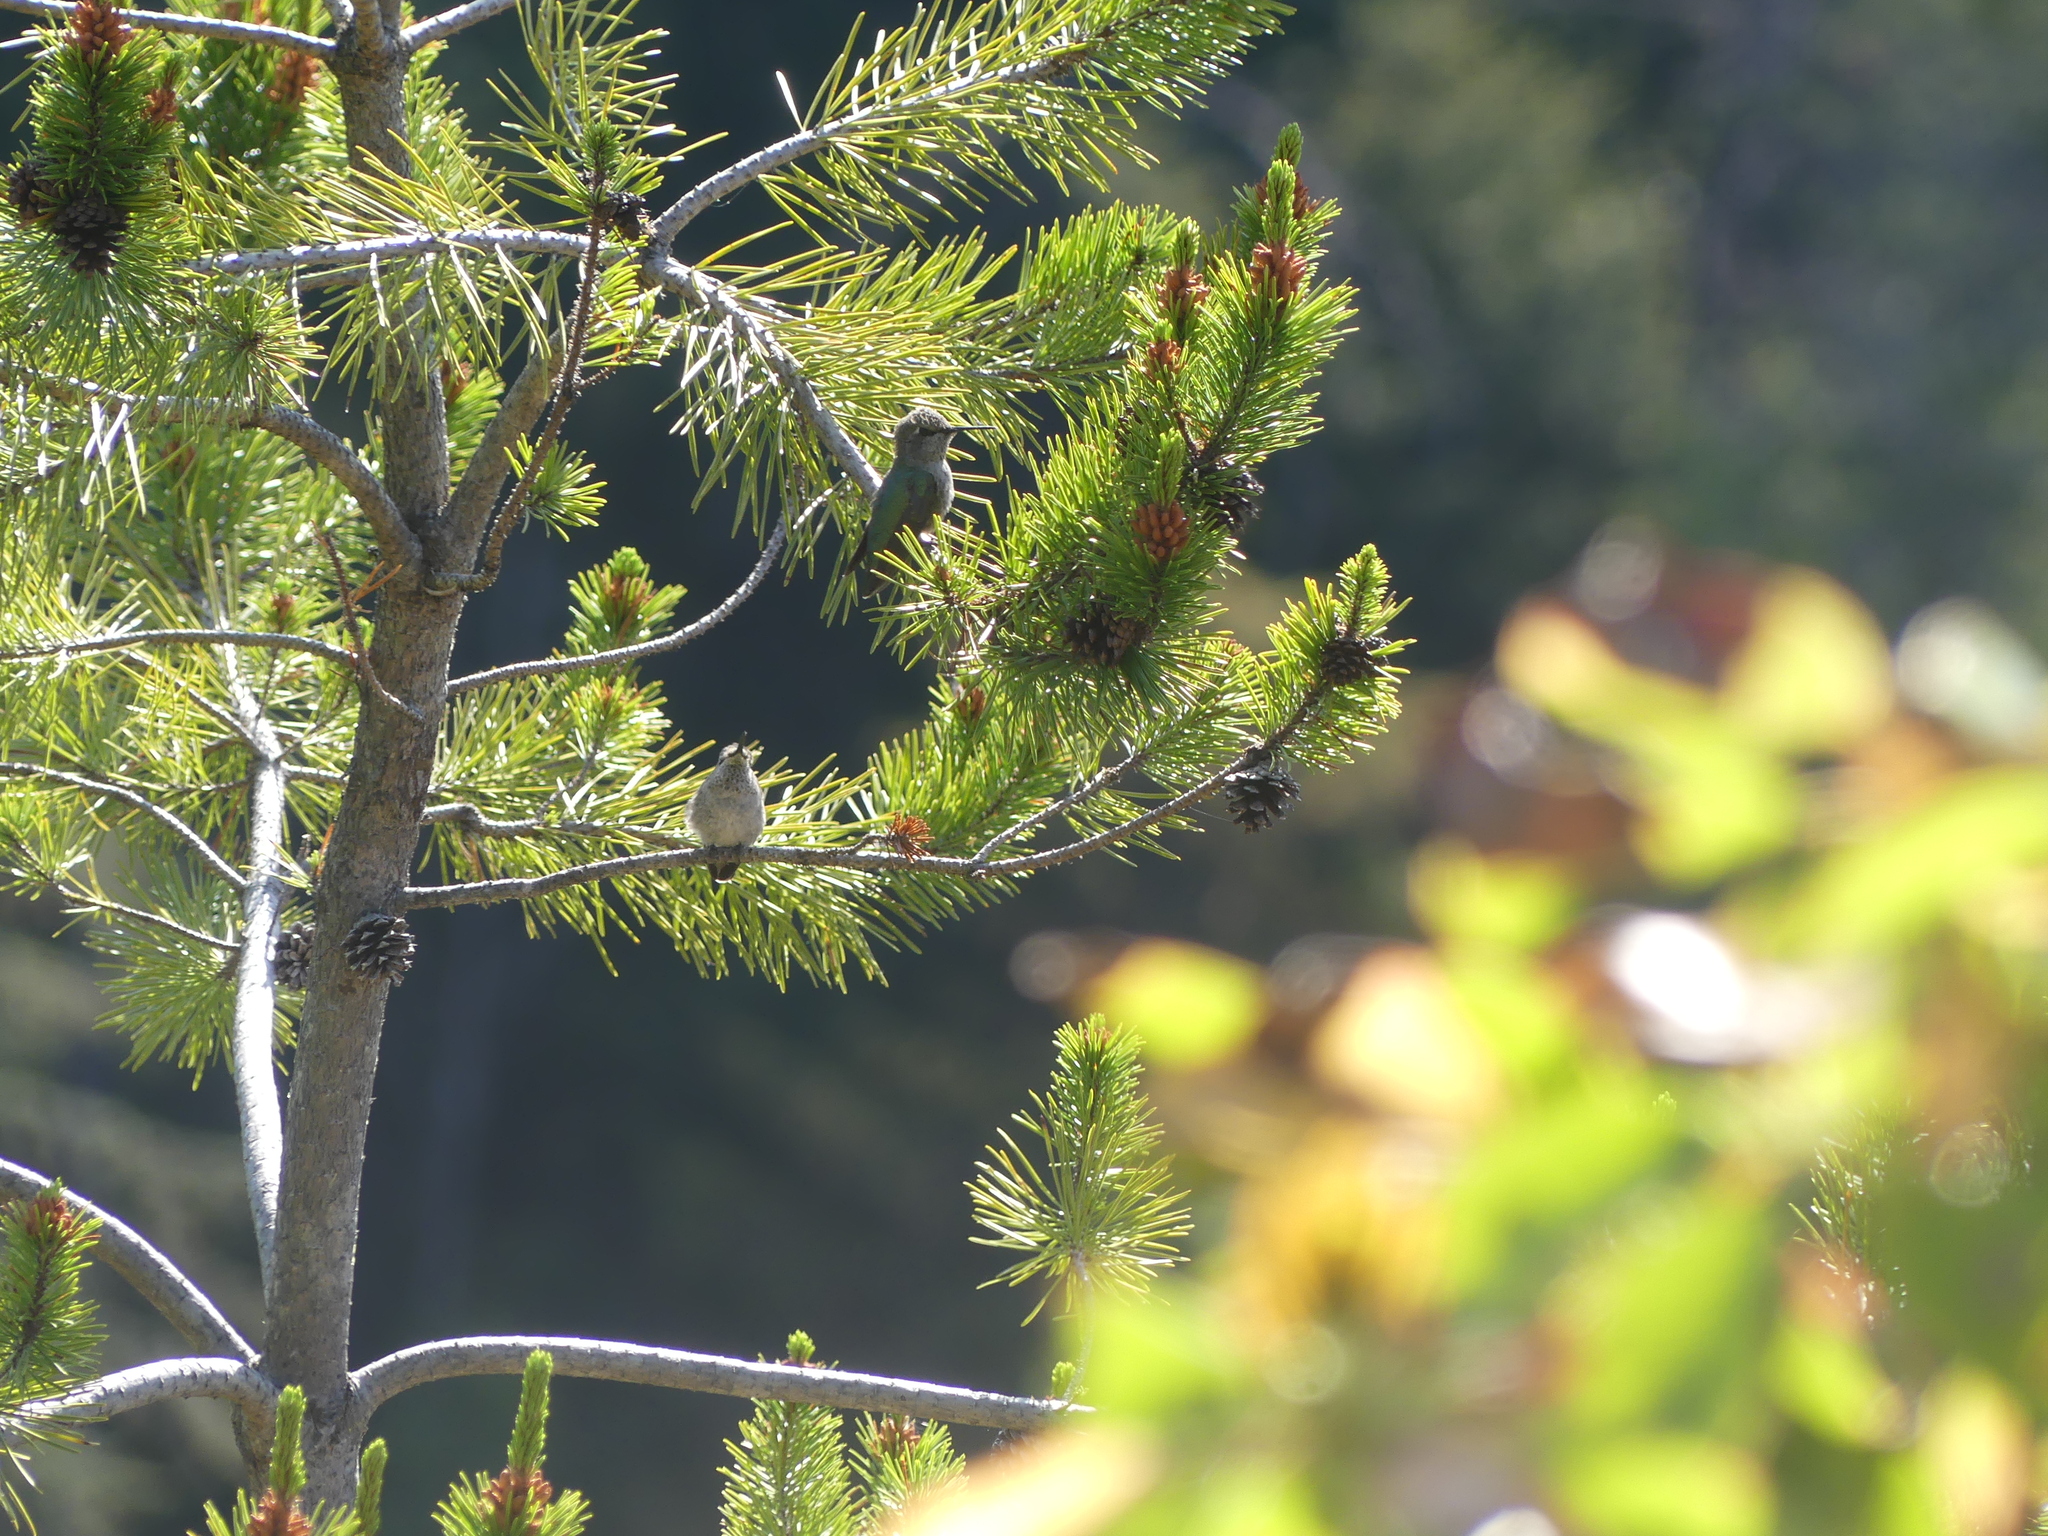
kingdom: Animalia
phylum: Chordata
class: Aves
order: Apodiformes
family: Trochilidae
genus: Calypte
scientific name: Calypte anna
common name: Anna's hummingbird
